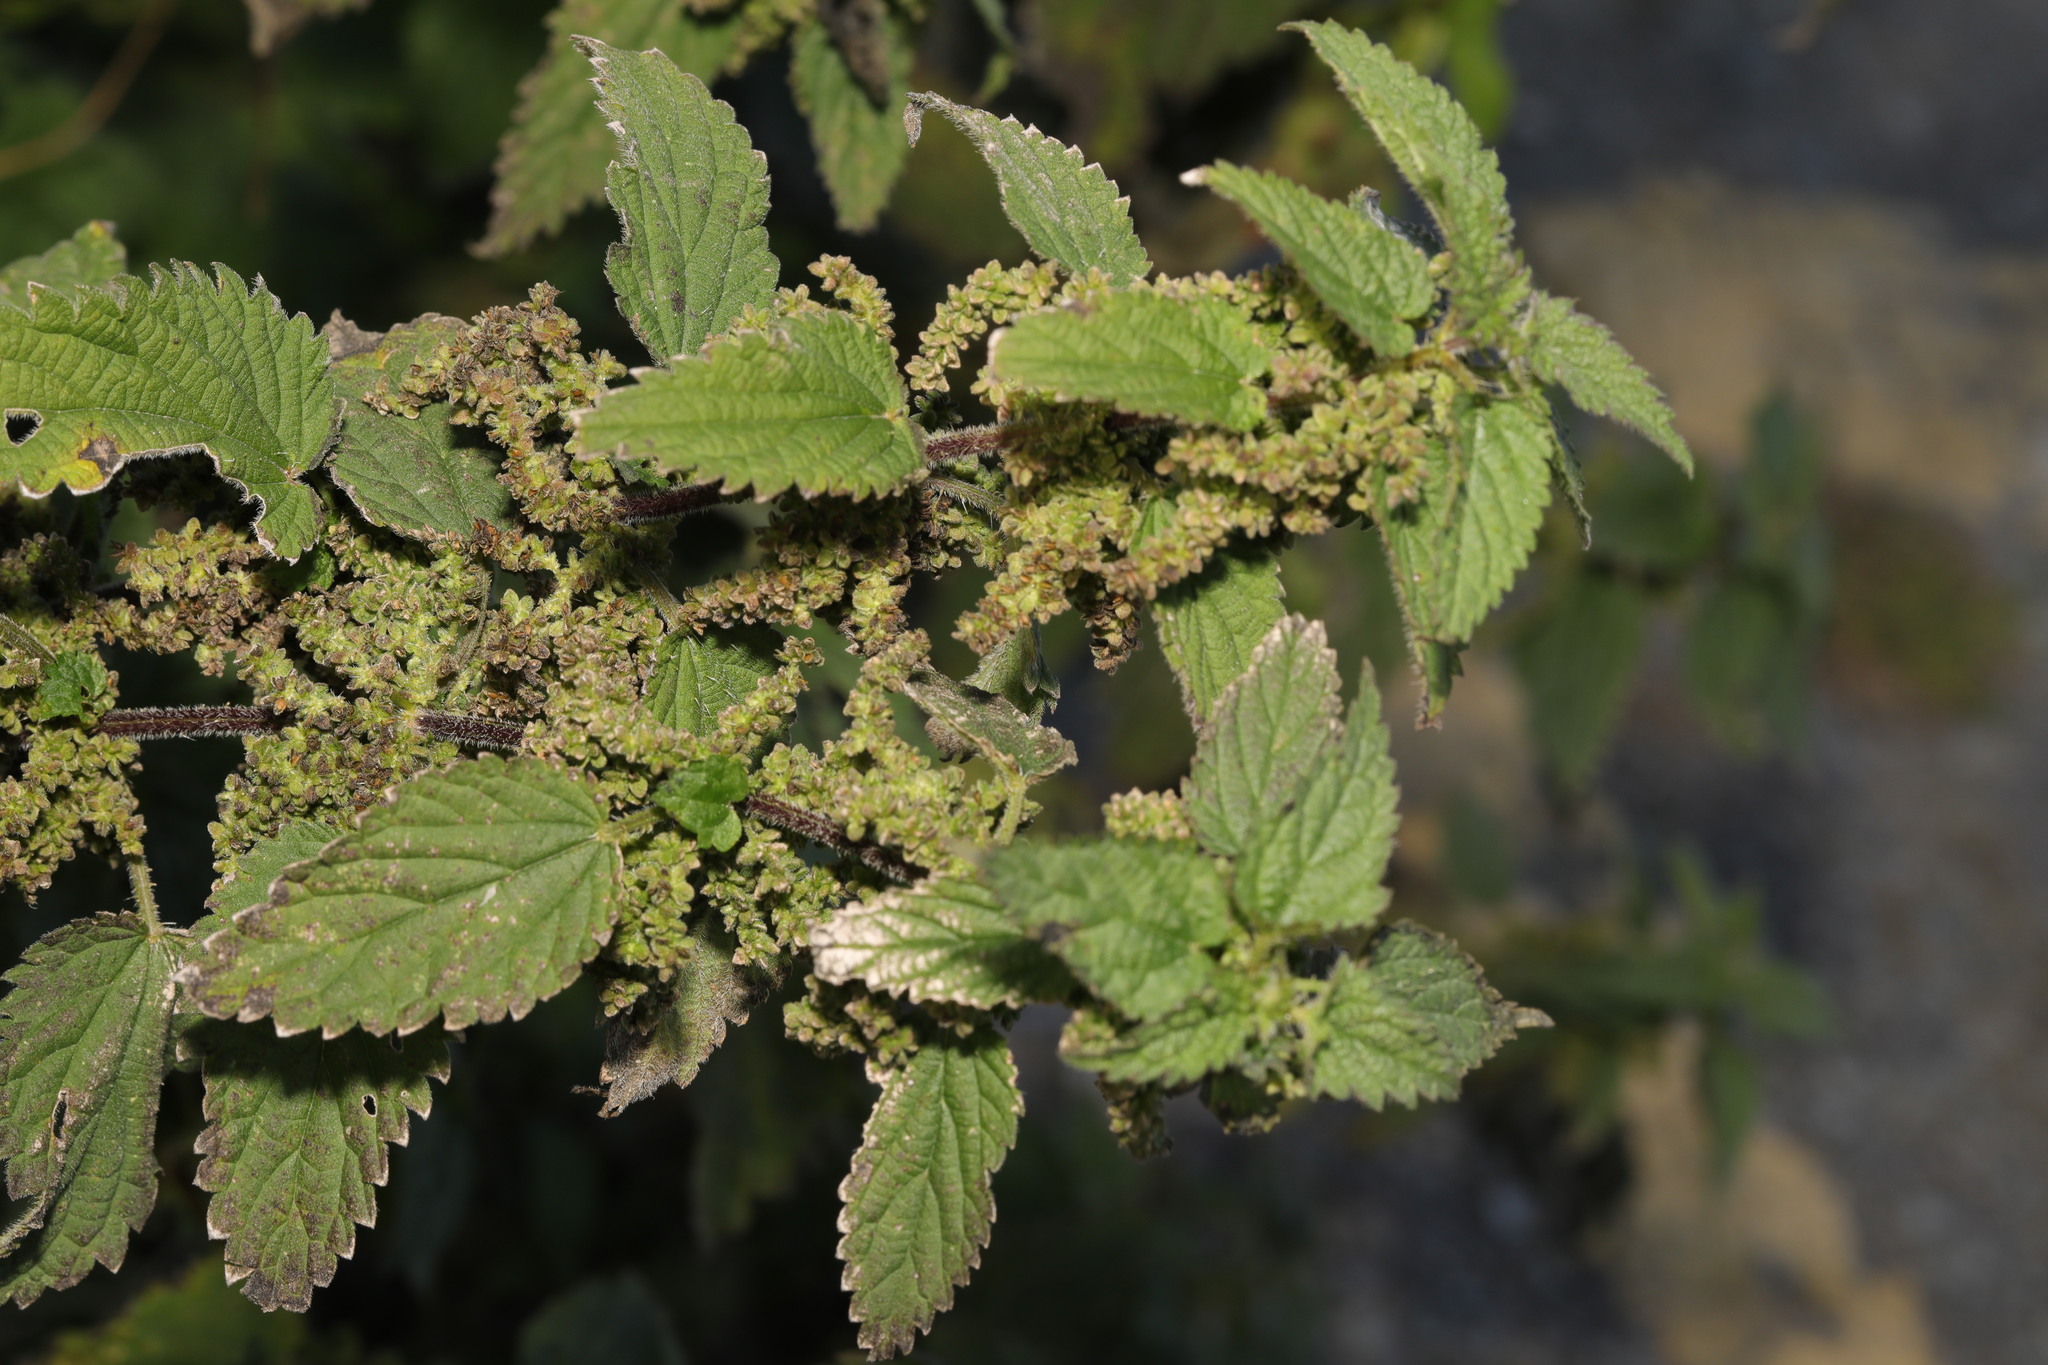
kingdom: Plantae
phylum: Tracheophyta
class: Magnoliopsida
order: Rosales
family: Urticaceae
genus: Urtica
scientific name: Urtica dioica
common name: Common nettle
